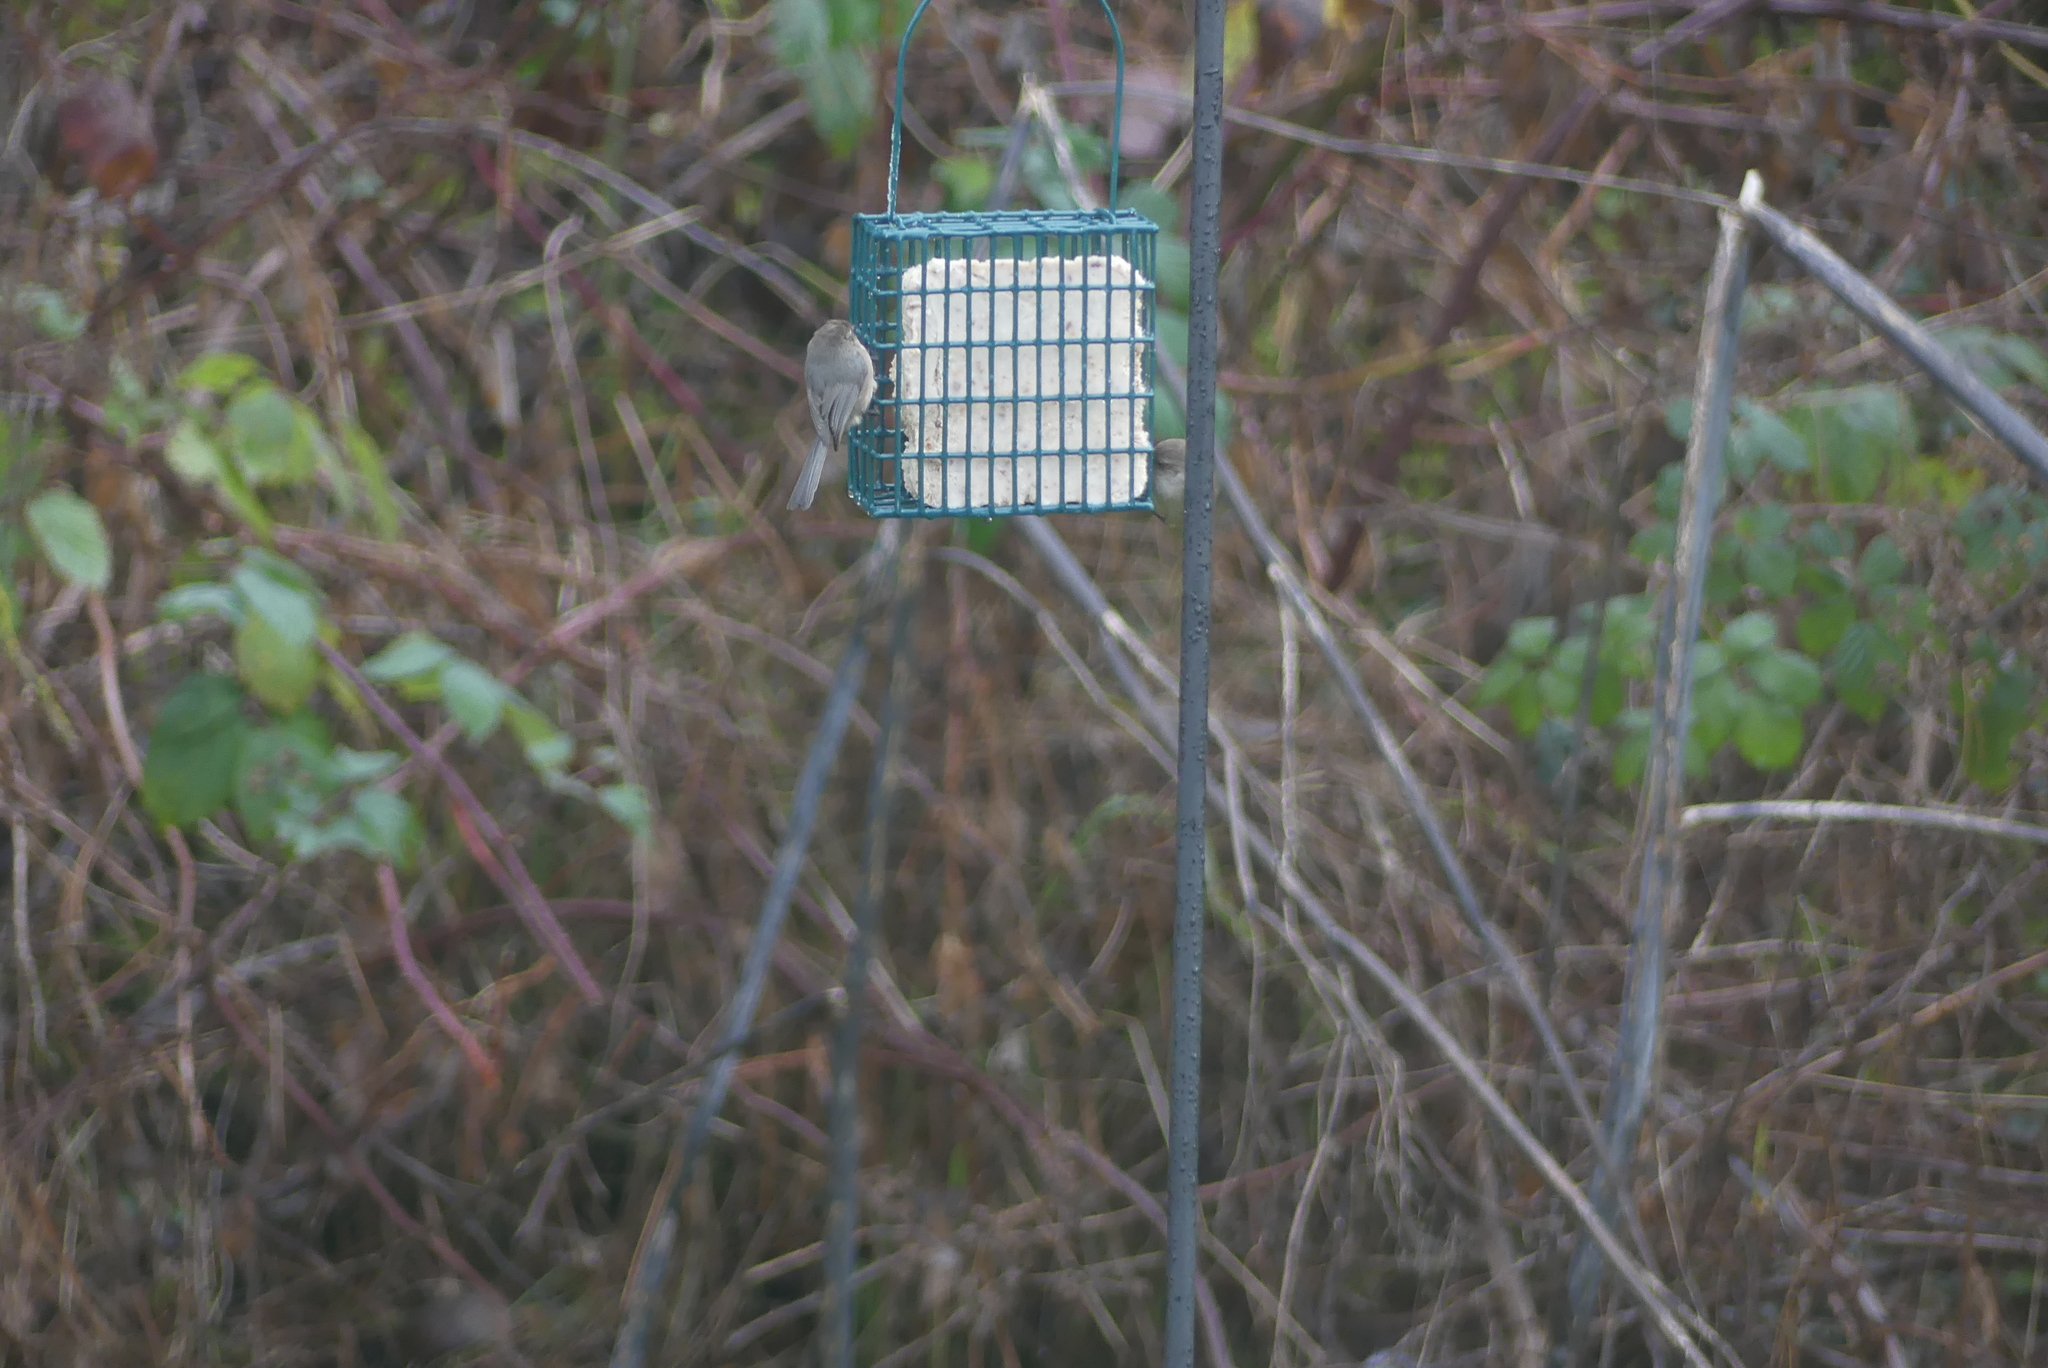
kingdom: Animalia
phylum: Chordata
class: Aves
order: Passeriformes
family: Aegithalidae
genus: Psaltriparus
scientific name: Psaltriparus minimus
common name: American bushtit
